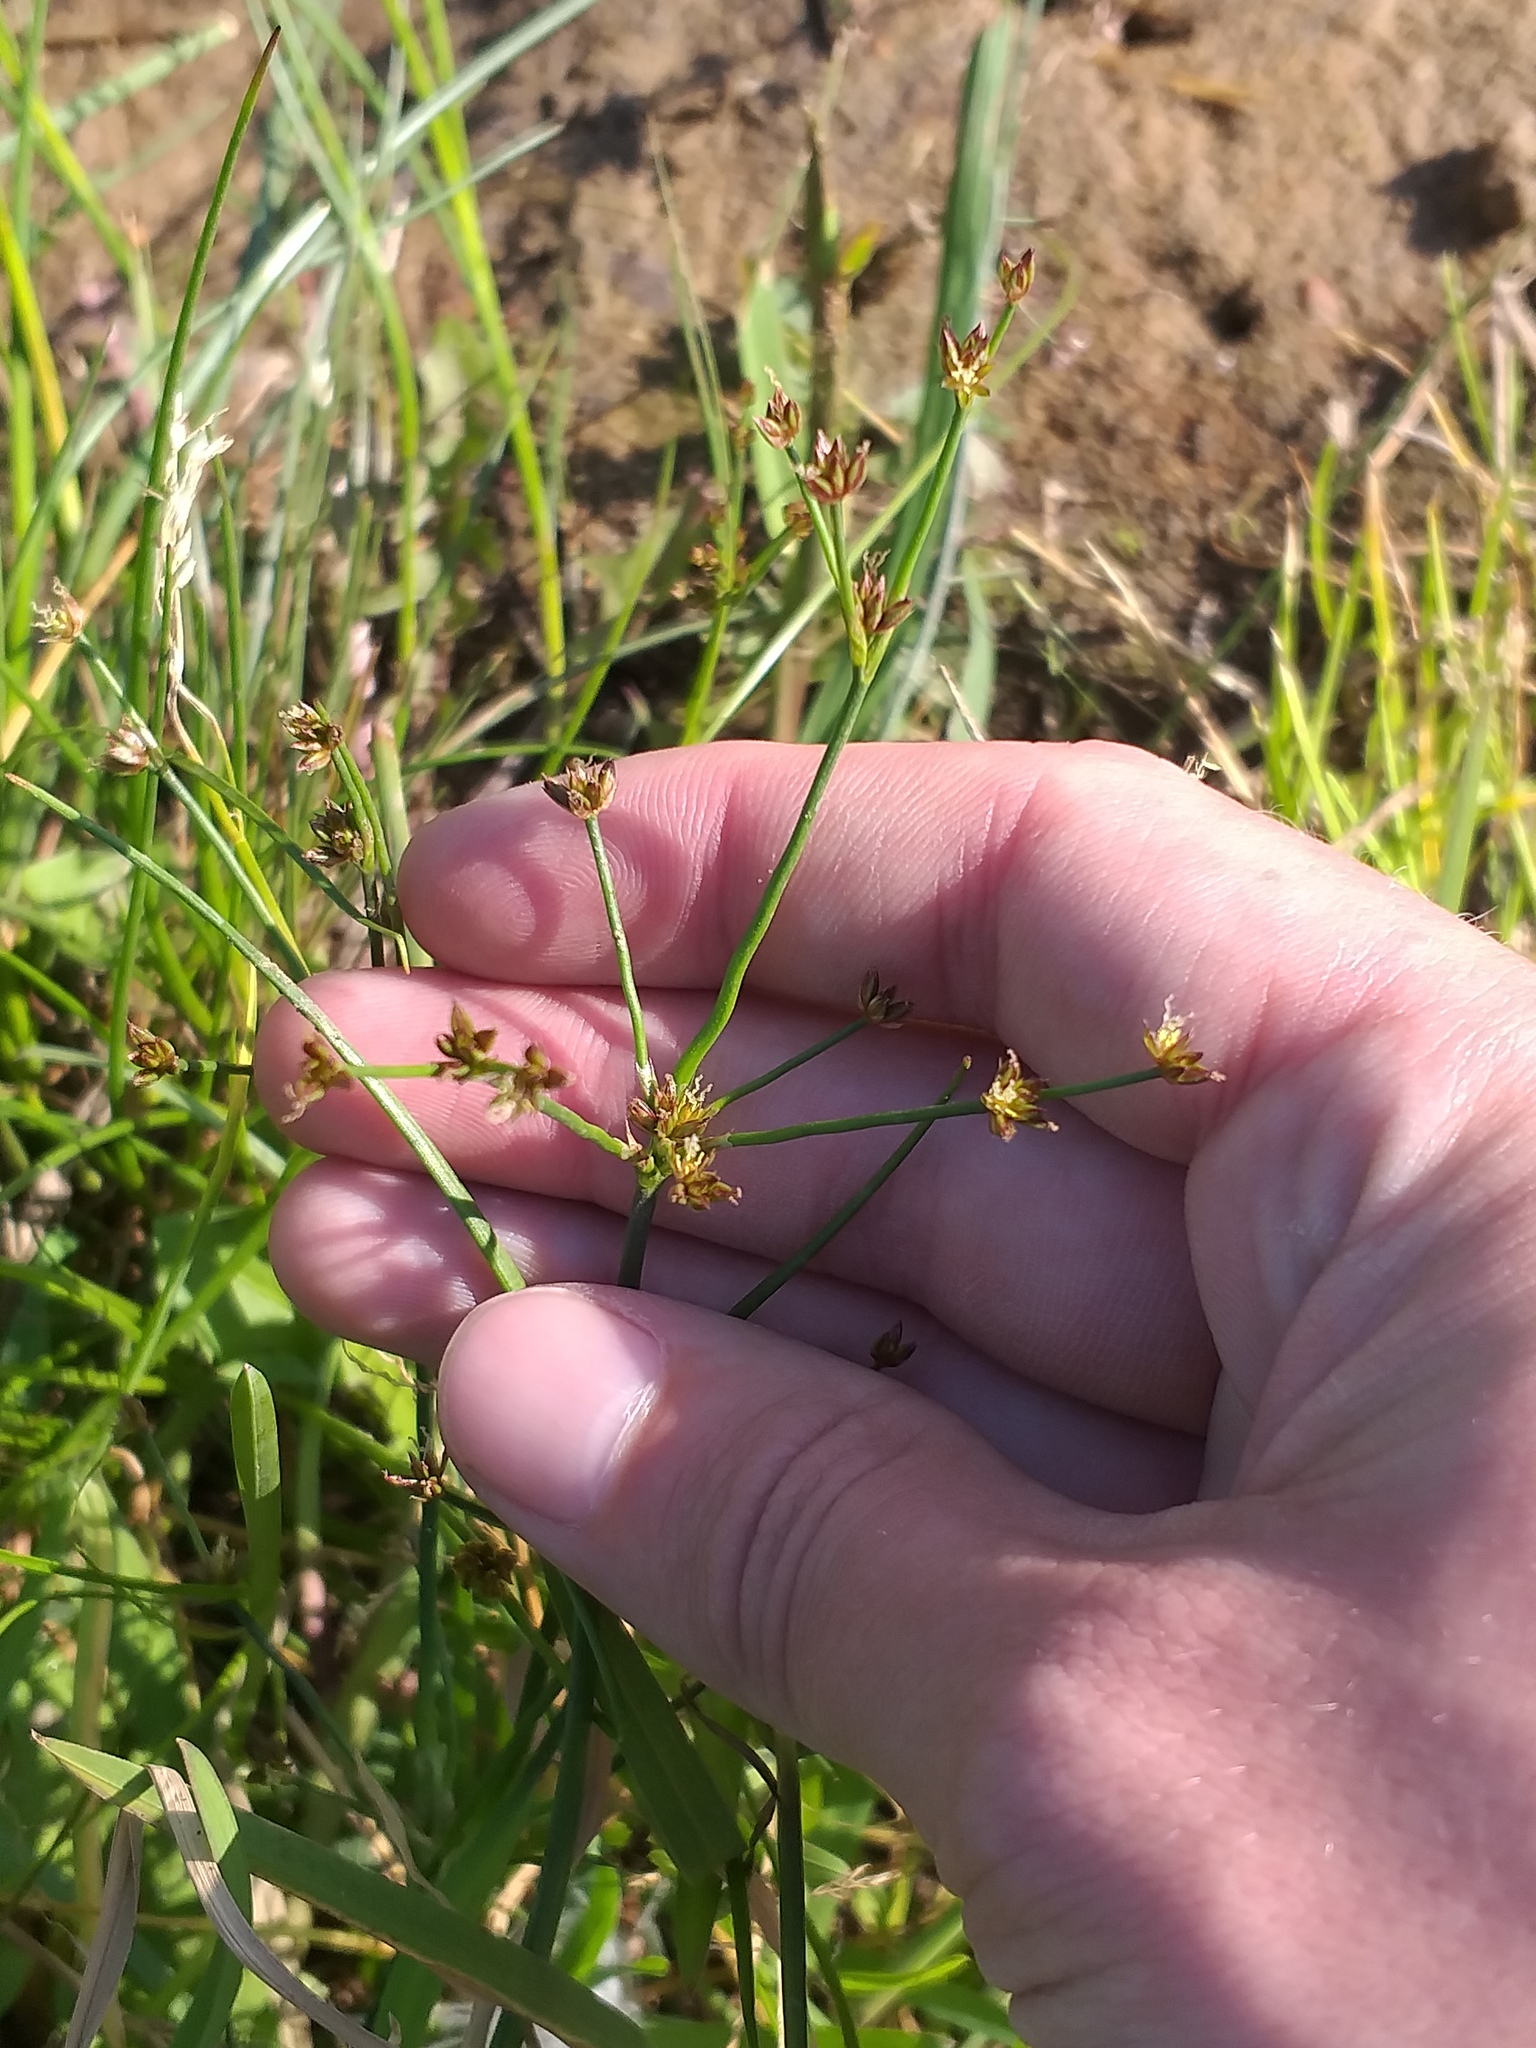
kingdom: Plantae
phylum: Tracheophyta
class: Liliopsida
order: Poales
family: Juncaceae
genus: Juncus
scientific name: Juncus articulatus
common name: Jointed rush
